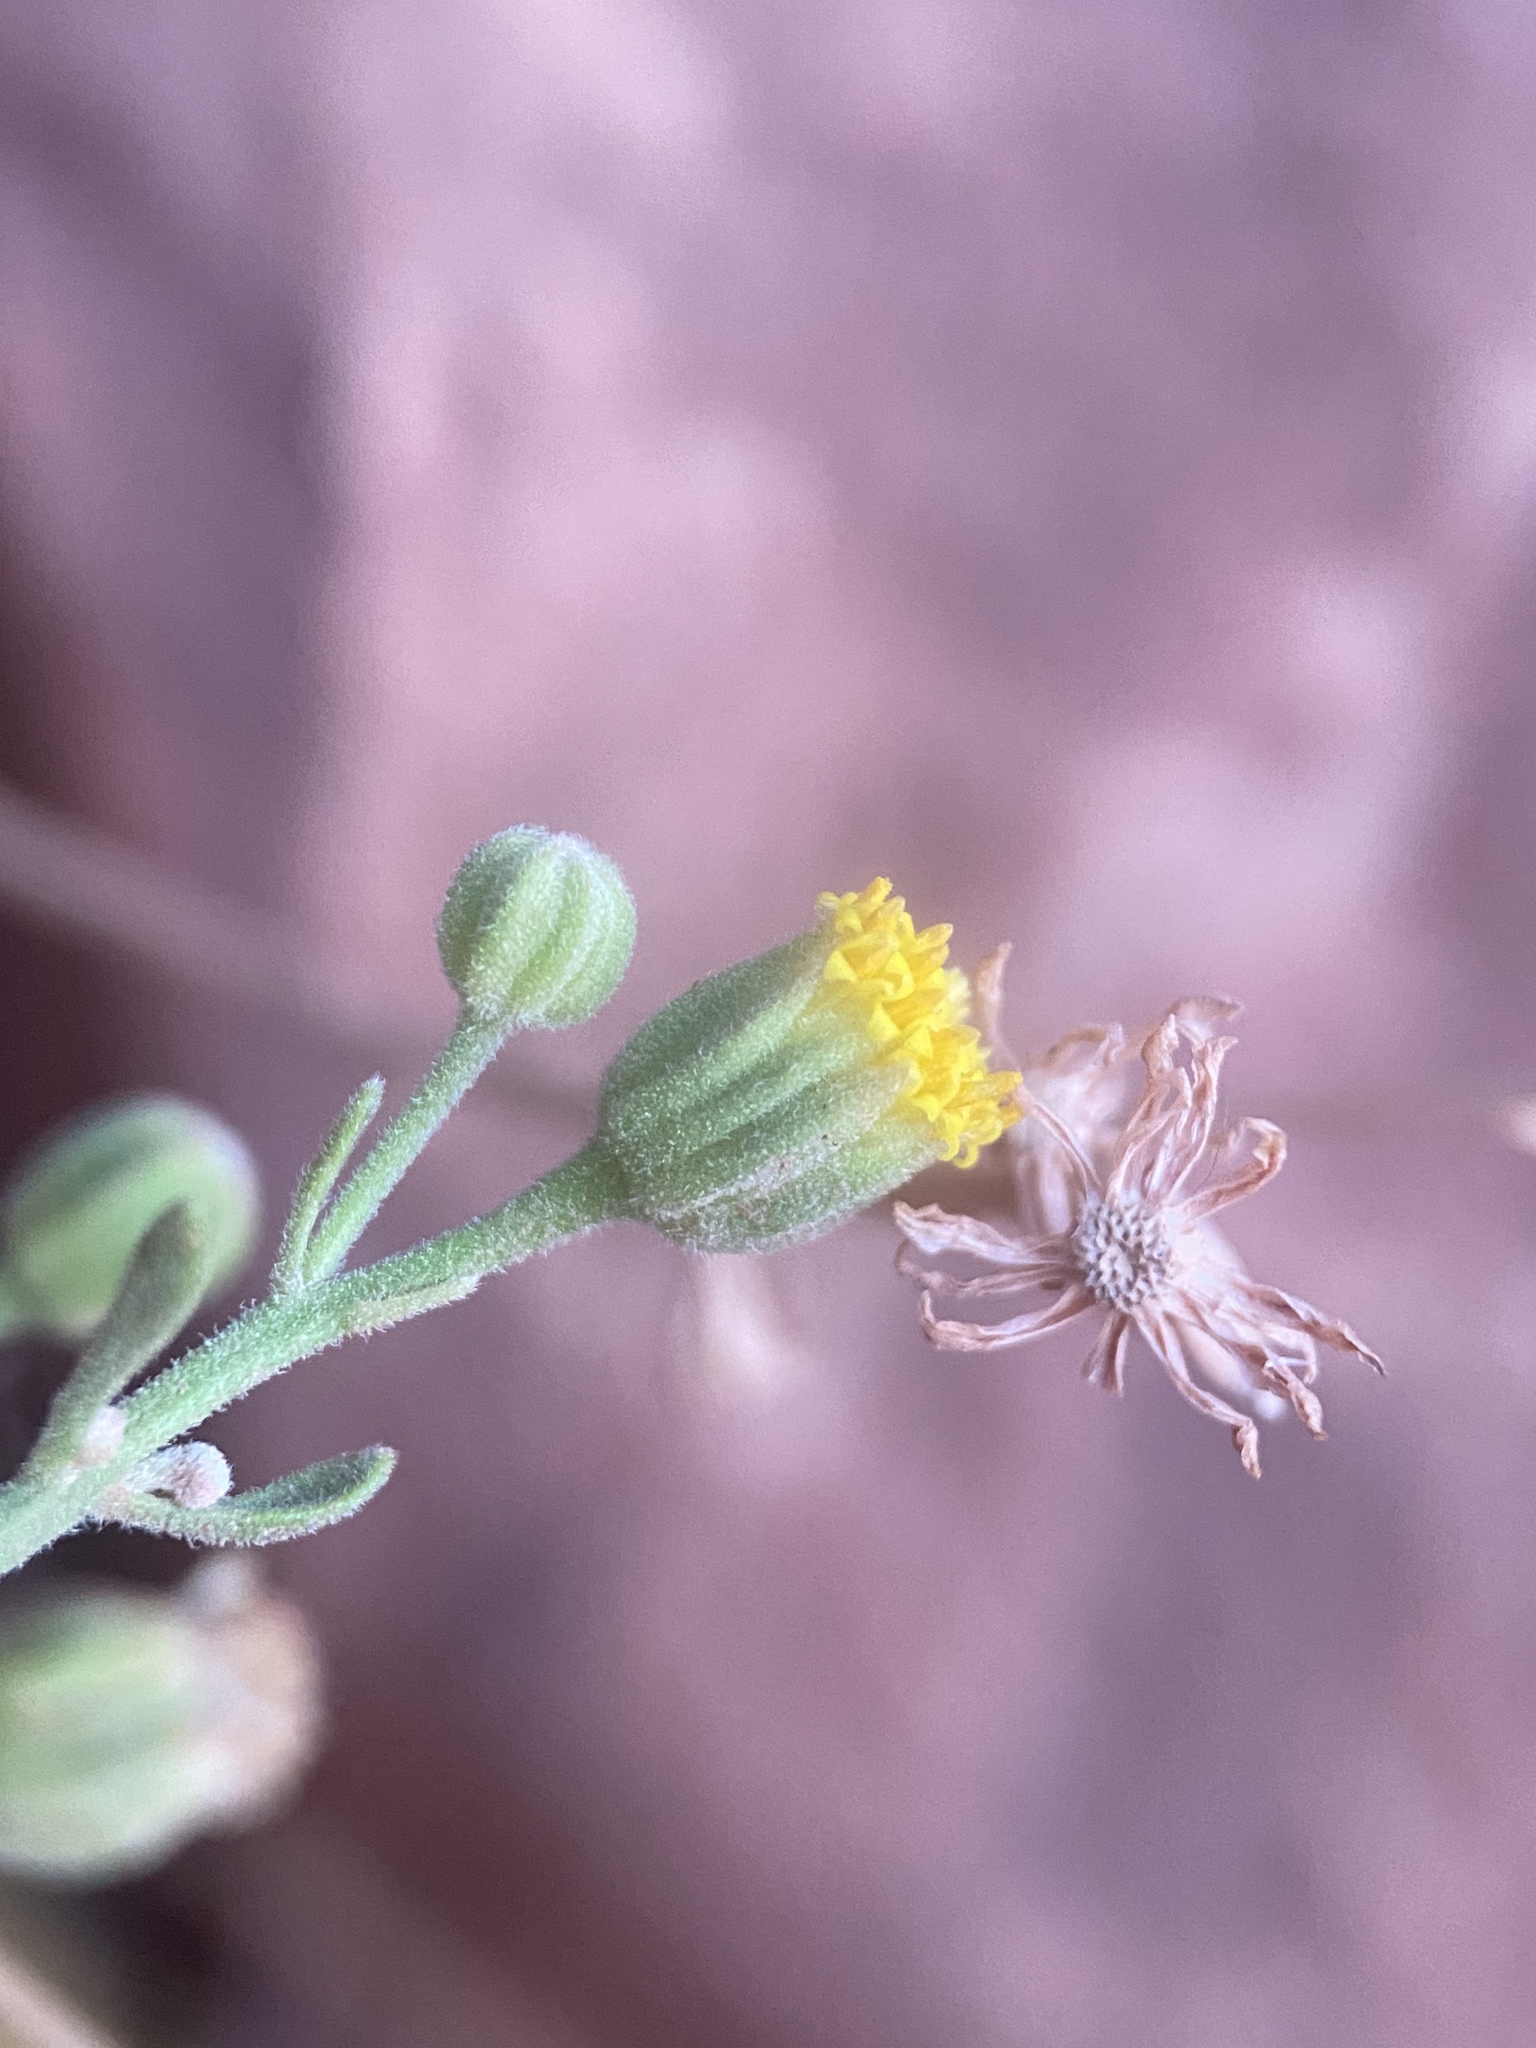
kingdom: Plantae
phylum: Tracheophyta
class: Magnoliopsida
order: Asterales
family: Asteraceae
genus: Laphamia
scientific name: Laphamia congesta
